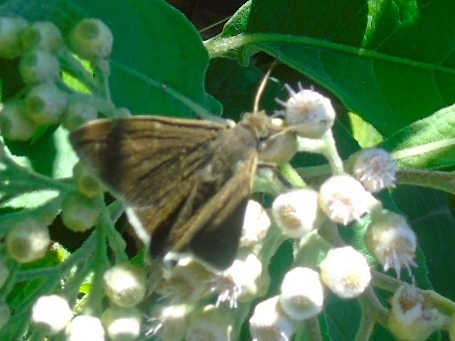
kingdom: Animalia
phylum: Arthropoda
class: Insecta
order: Lepidoptera
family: Hesperiidae
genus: Achalarus
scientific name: Achalarus
